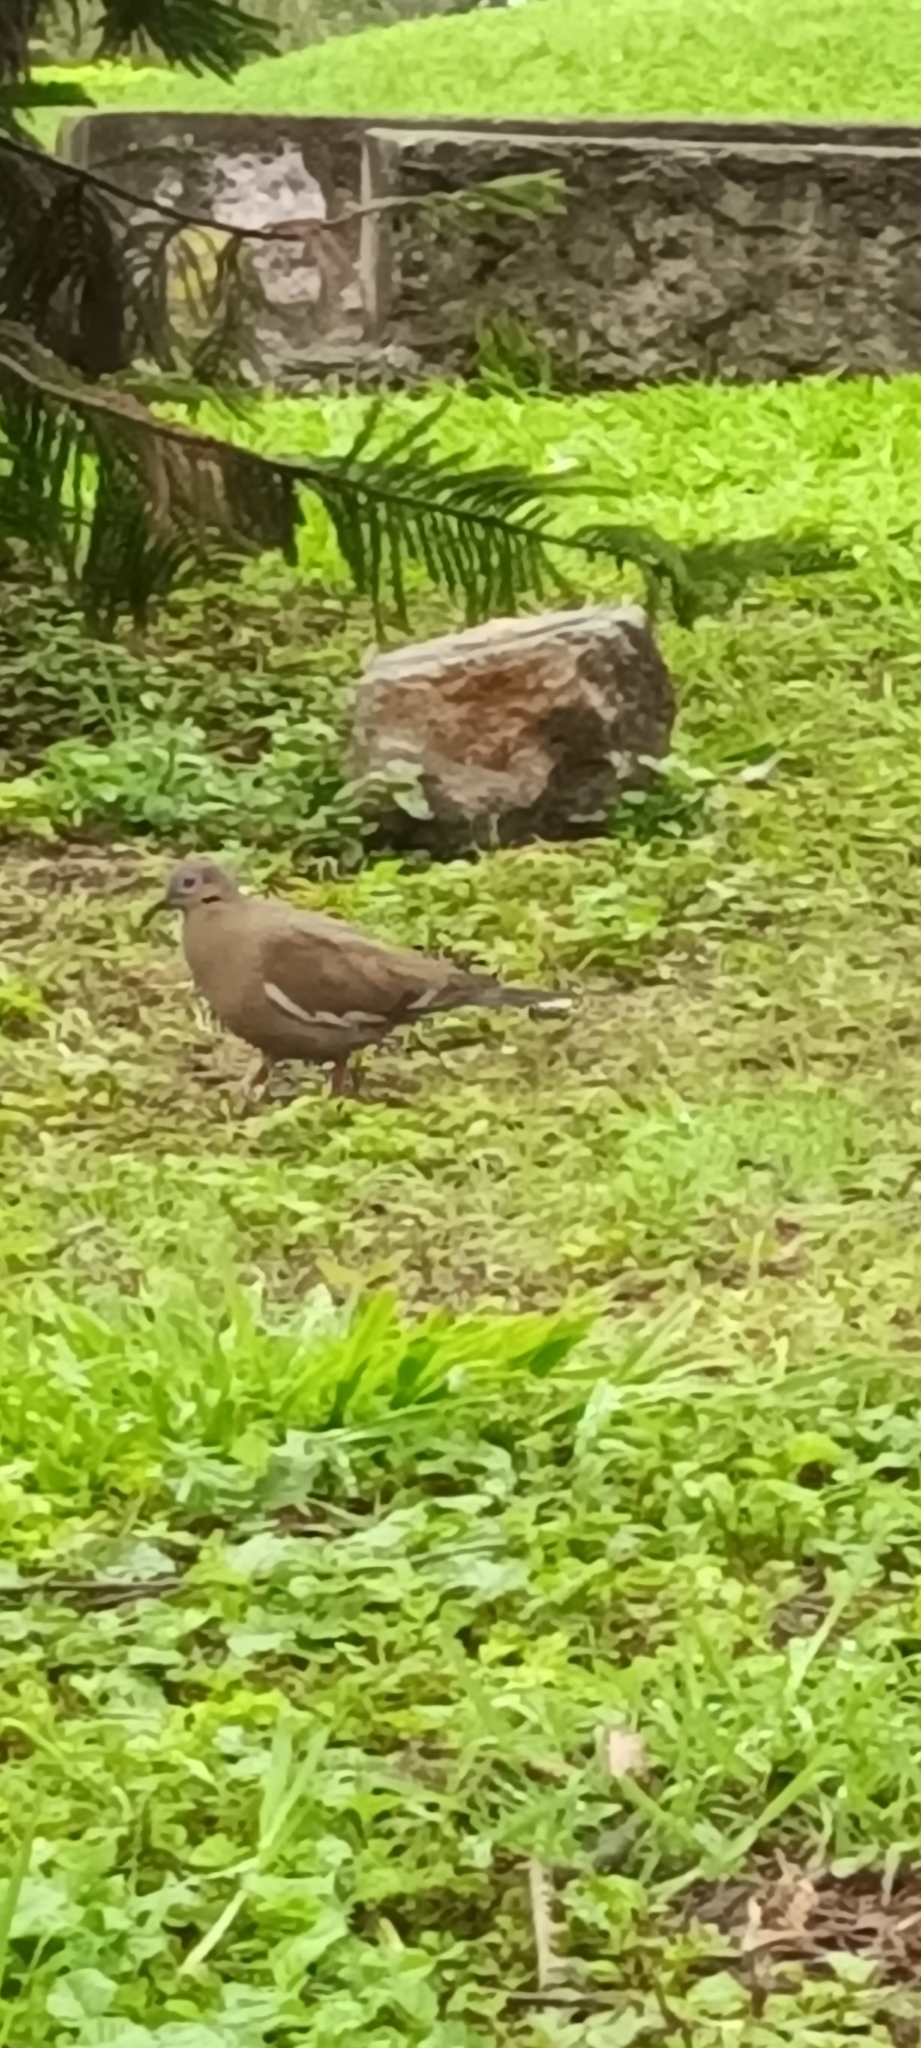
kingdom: Animalia
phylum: Chordata
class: Aves
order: Columbiformes
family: Columbidae
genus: Zenaida
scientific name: Zenaida asiatica
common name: White-winged dove
